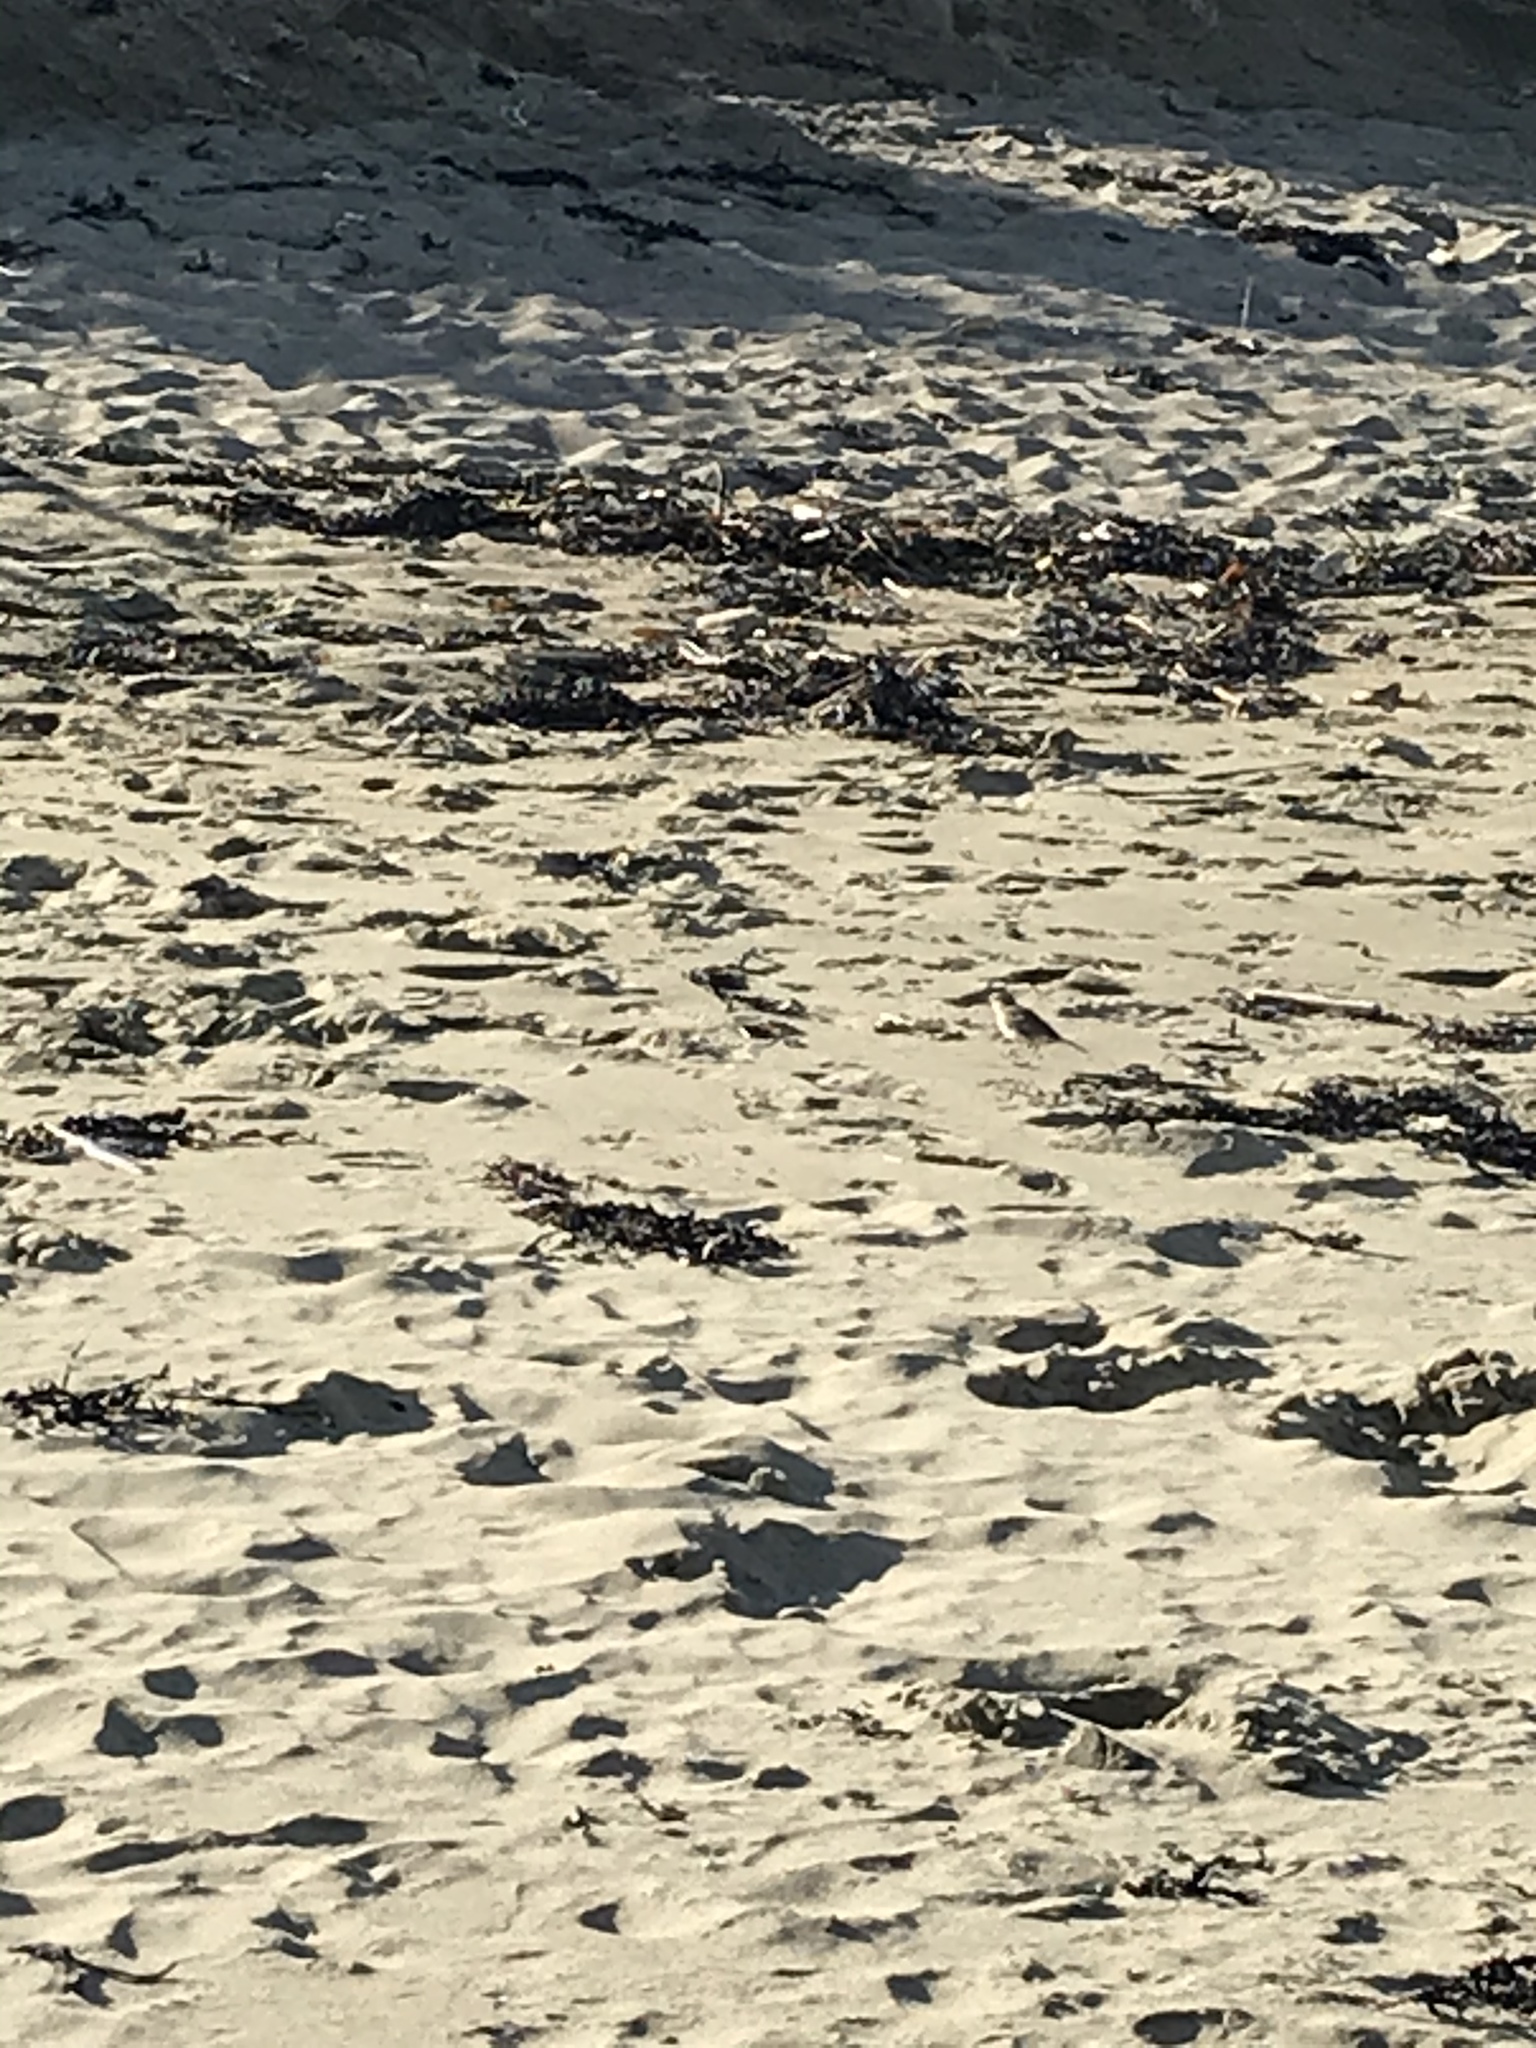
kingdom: Animalia
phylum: Chordata
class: Aves
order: Passeriformes
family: Motacillidae
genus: Anthus
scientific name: Anthus novaeseelandiae
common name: New zealand pipit
